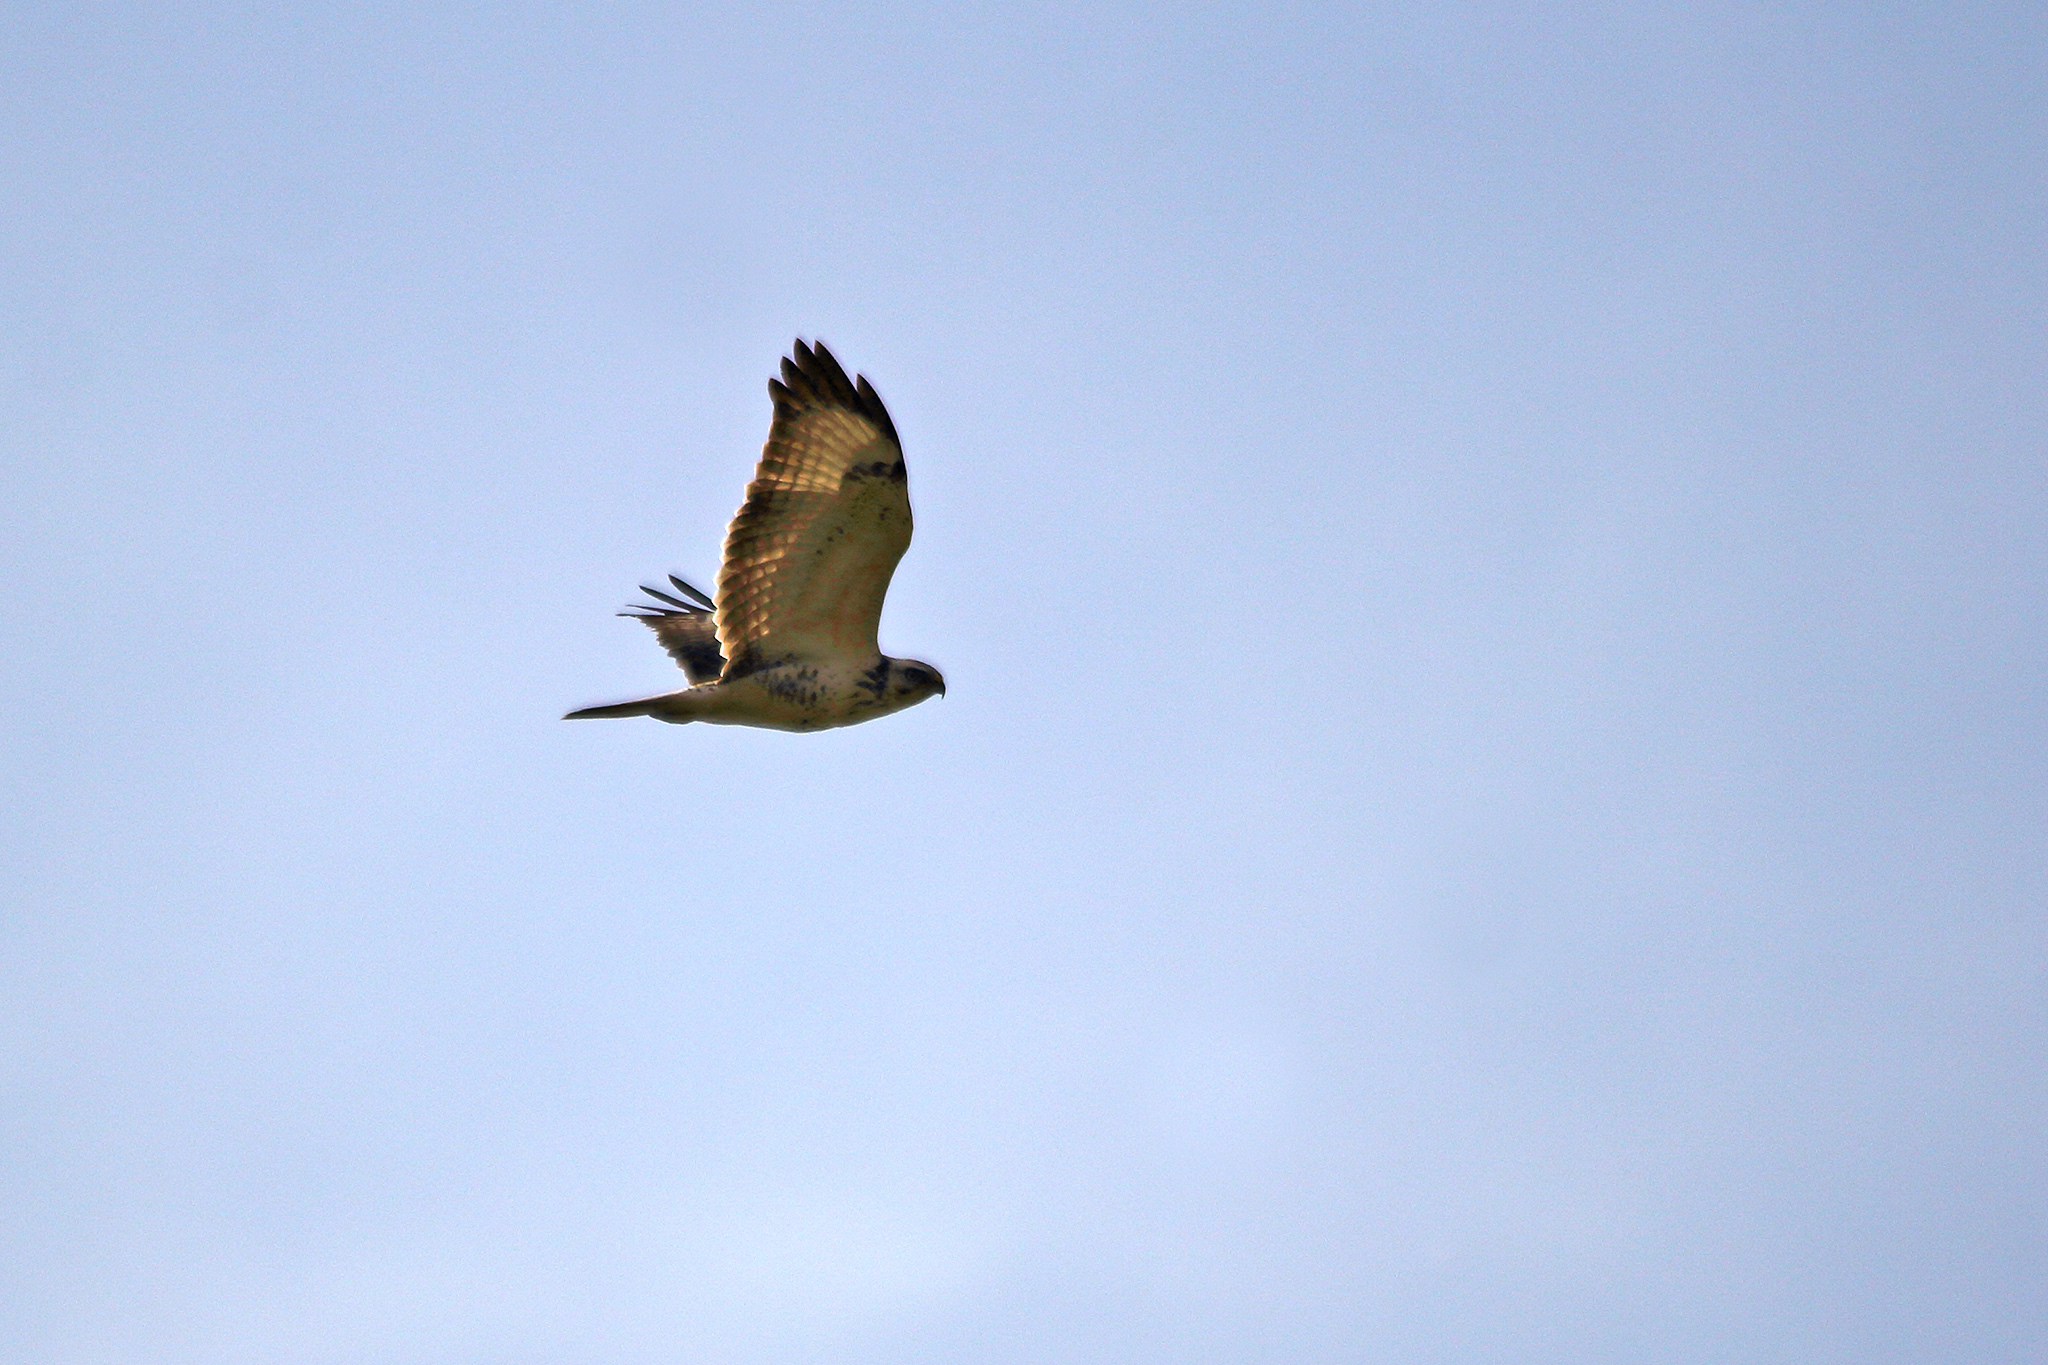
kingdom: Animalia
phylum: Chordata
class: Aves
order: Accipitriformes
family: Accipitridae
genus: Buteo
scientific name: Buteo buteo
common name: Common buzzard
